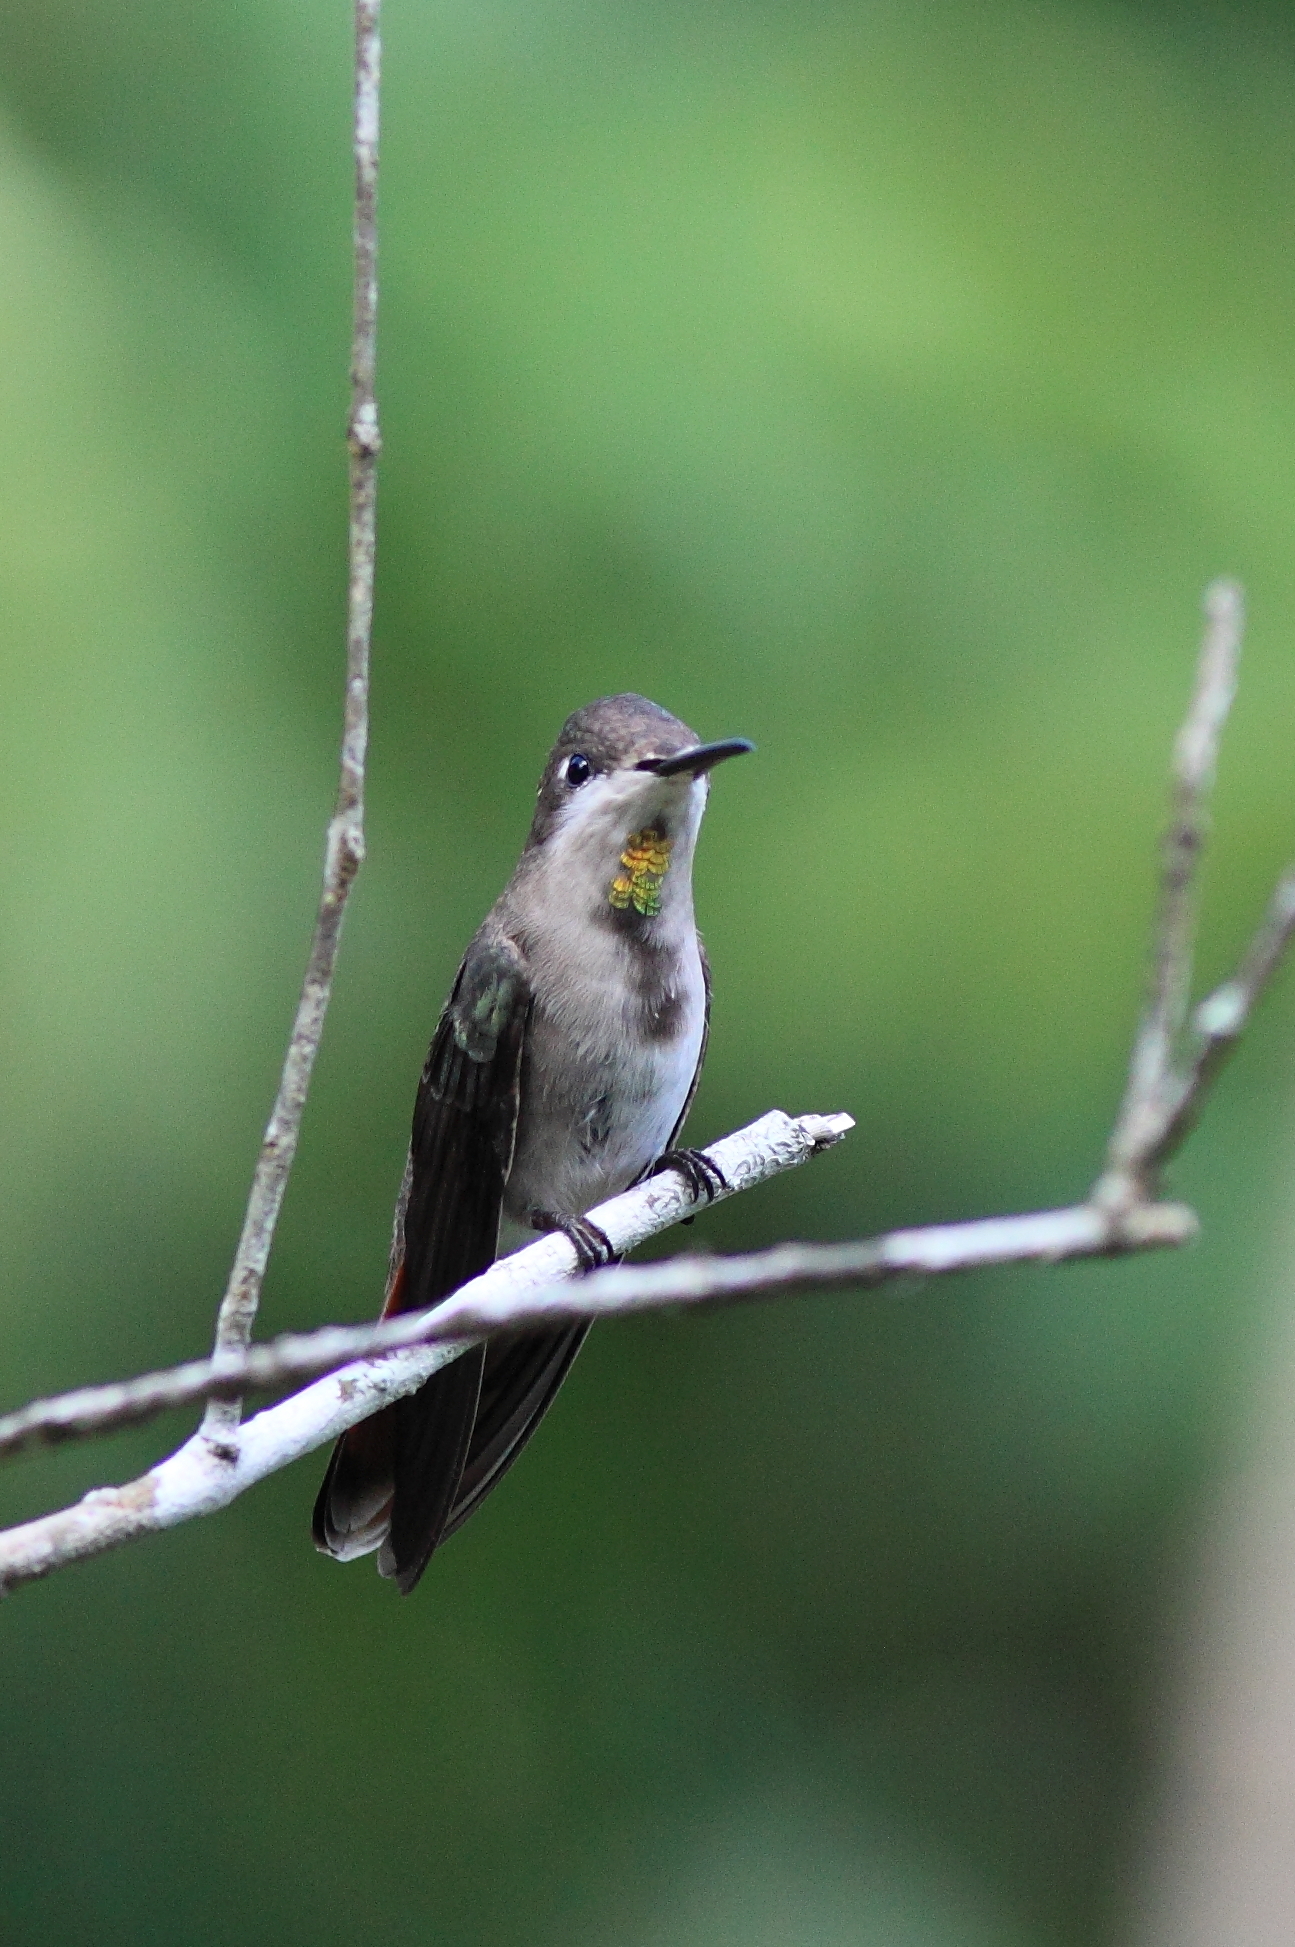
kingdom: Animalia
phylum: Chordata
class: Aves
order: Apodiformes
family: Trochilidae
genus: Chrysolampis
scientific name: Chrysolampis mosquitus
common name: Ruby-topaz hummingbird
